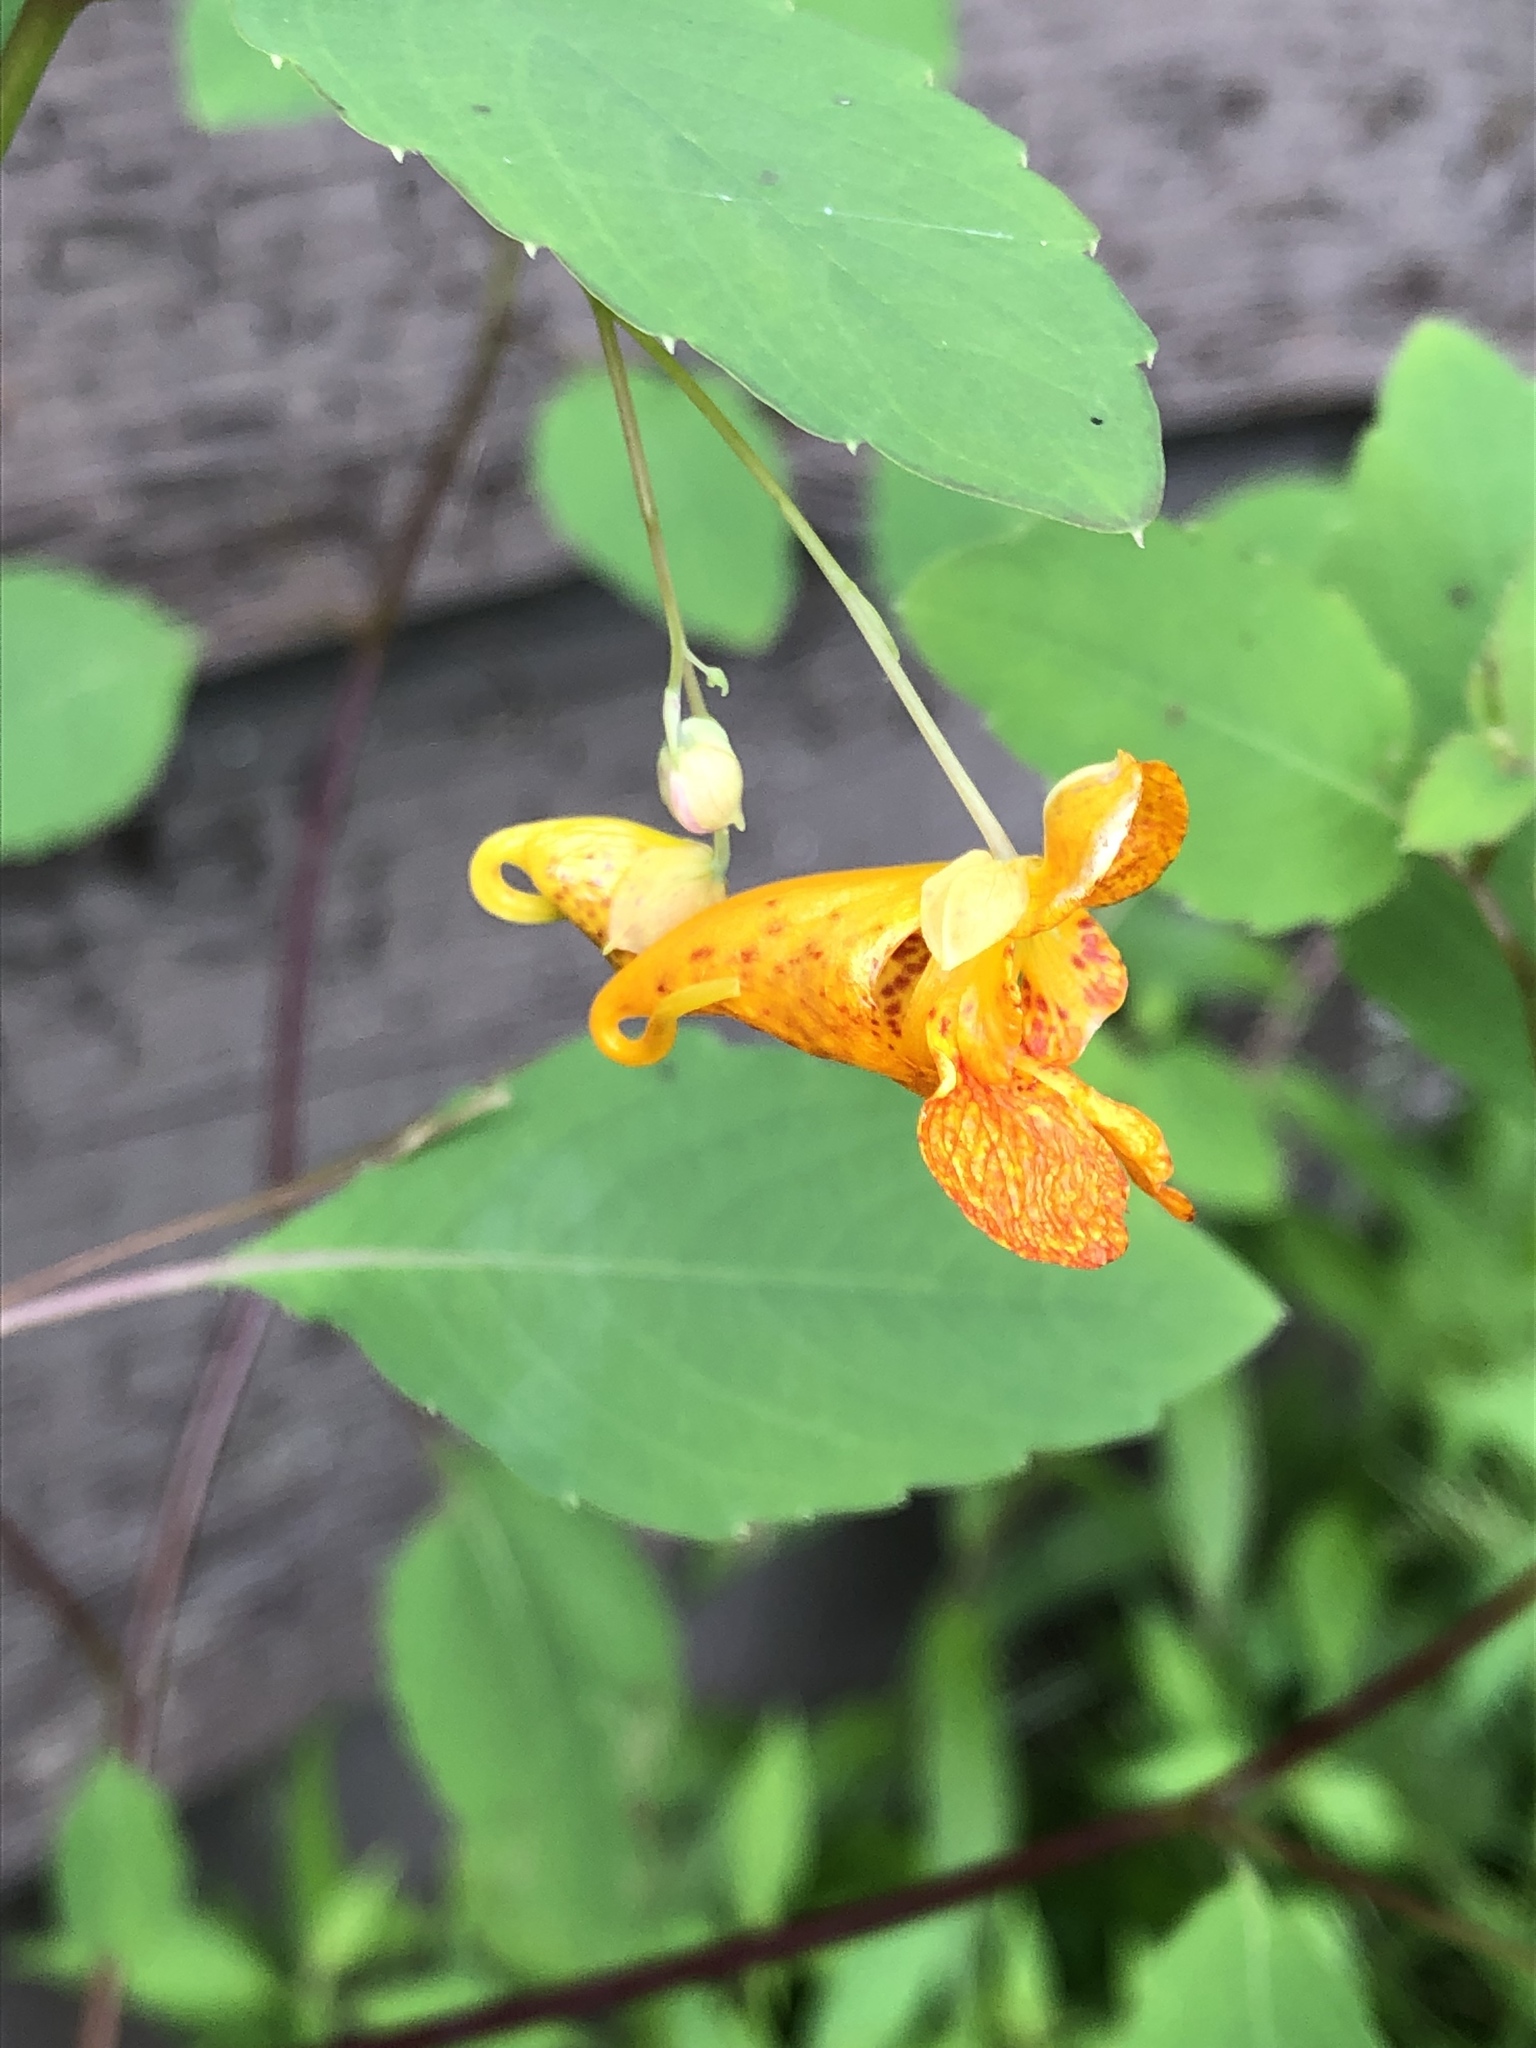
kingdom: Plantae
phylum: Tracheophyta
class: Magnoliopsida
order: Ericales
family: Balsaminaceae
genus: Impatiens
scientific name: Impatiens capensis
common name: Orange balsam
